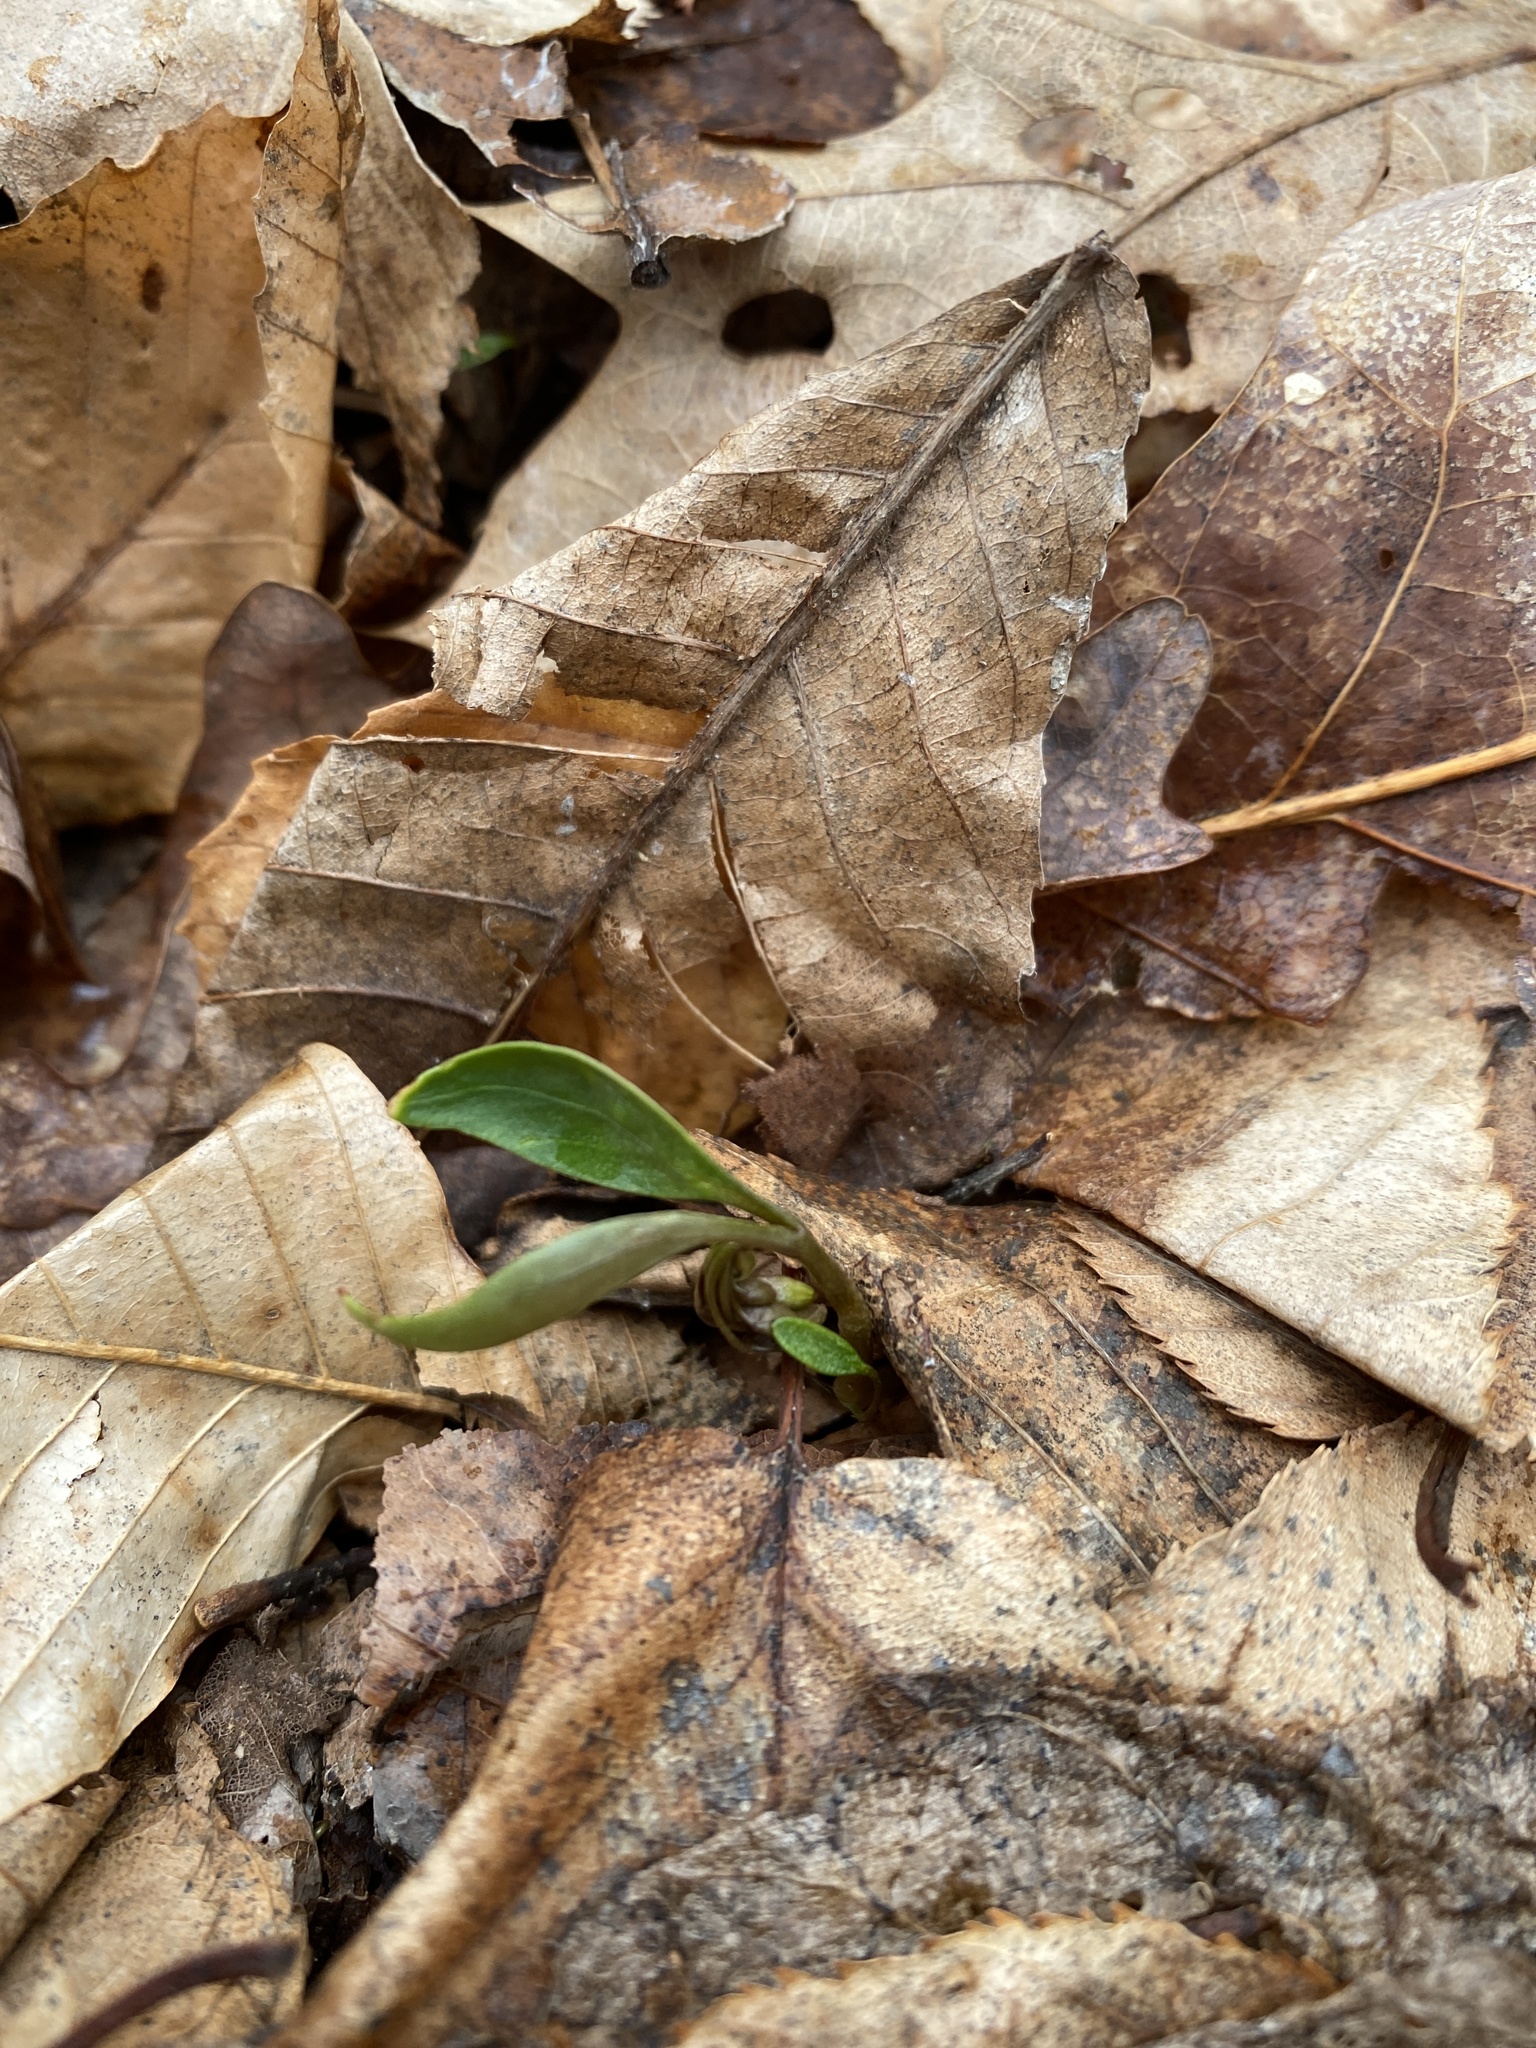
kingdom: Plantae
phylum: Tracheophyta
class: Magnoliopsida
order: Caryophyllales
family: Montiaceae
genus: Claytonia
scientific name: Claytonia caroliniana
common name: Carolina spring beauty
